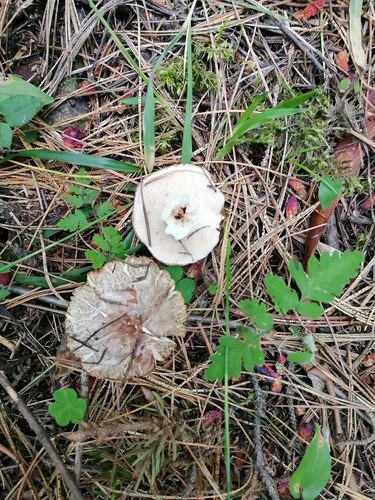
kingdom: Fungi
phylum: Basidiomycota
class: Agaricomycetes
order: Boletales
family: Suillaceae
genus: Suillus
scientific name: Suillus placidus
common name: Slippery white bolete
